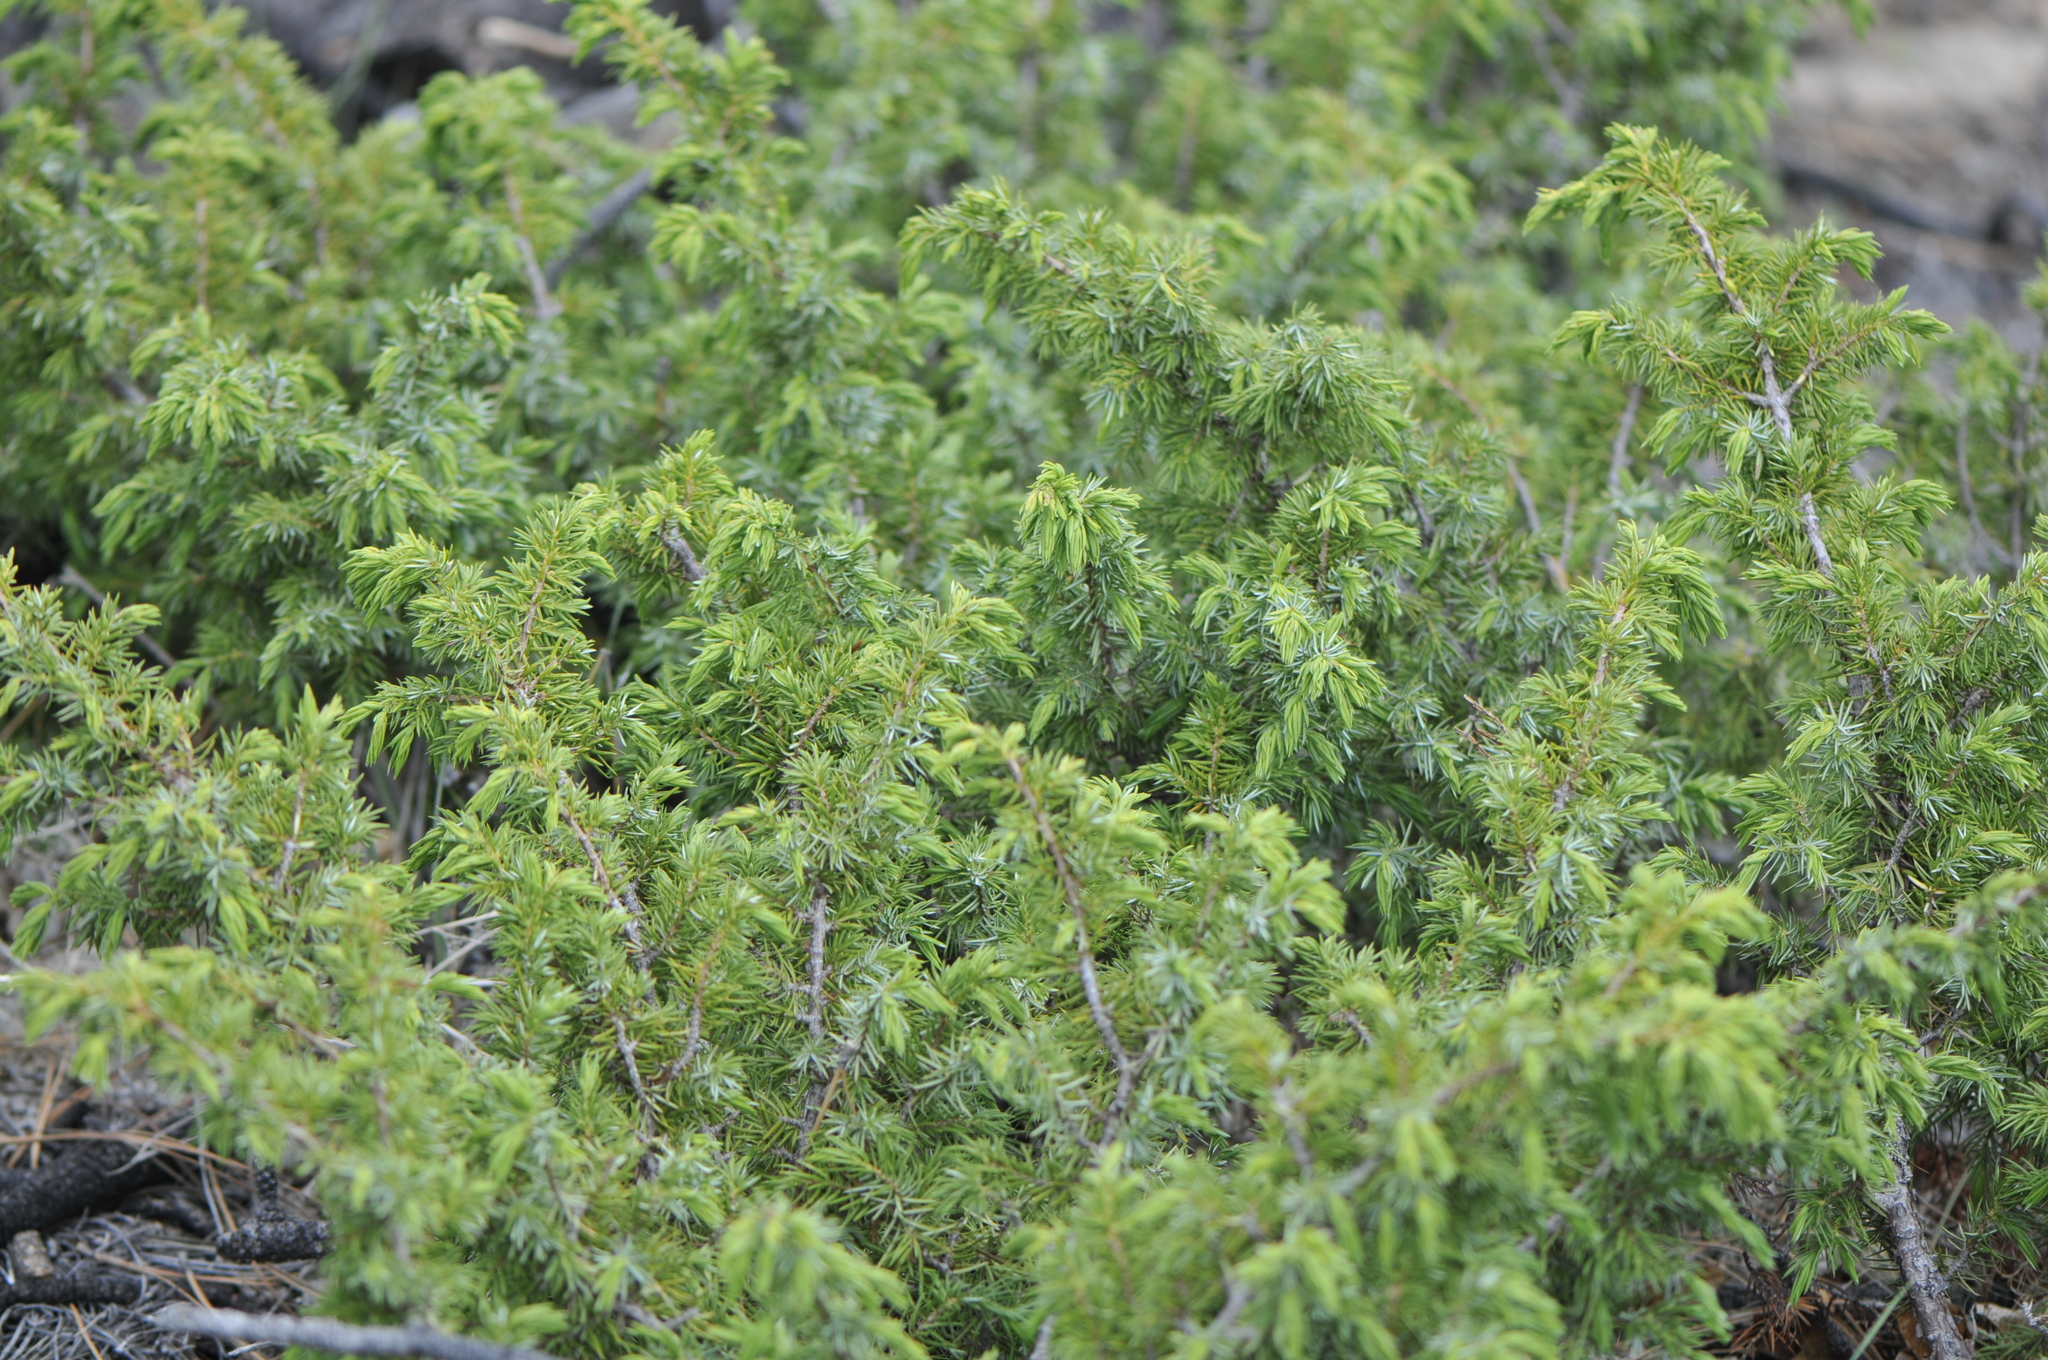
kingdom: Plantae
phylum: Tracheophyta
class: Pinopsida
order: Pinales
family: Cupressaceae
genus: Juniperus
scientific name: Juniperus communis
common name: Common juniper
